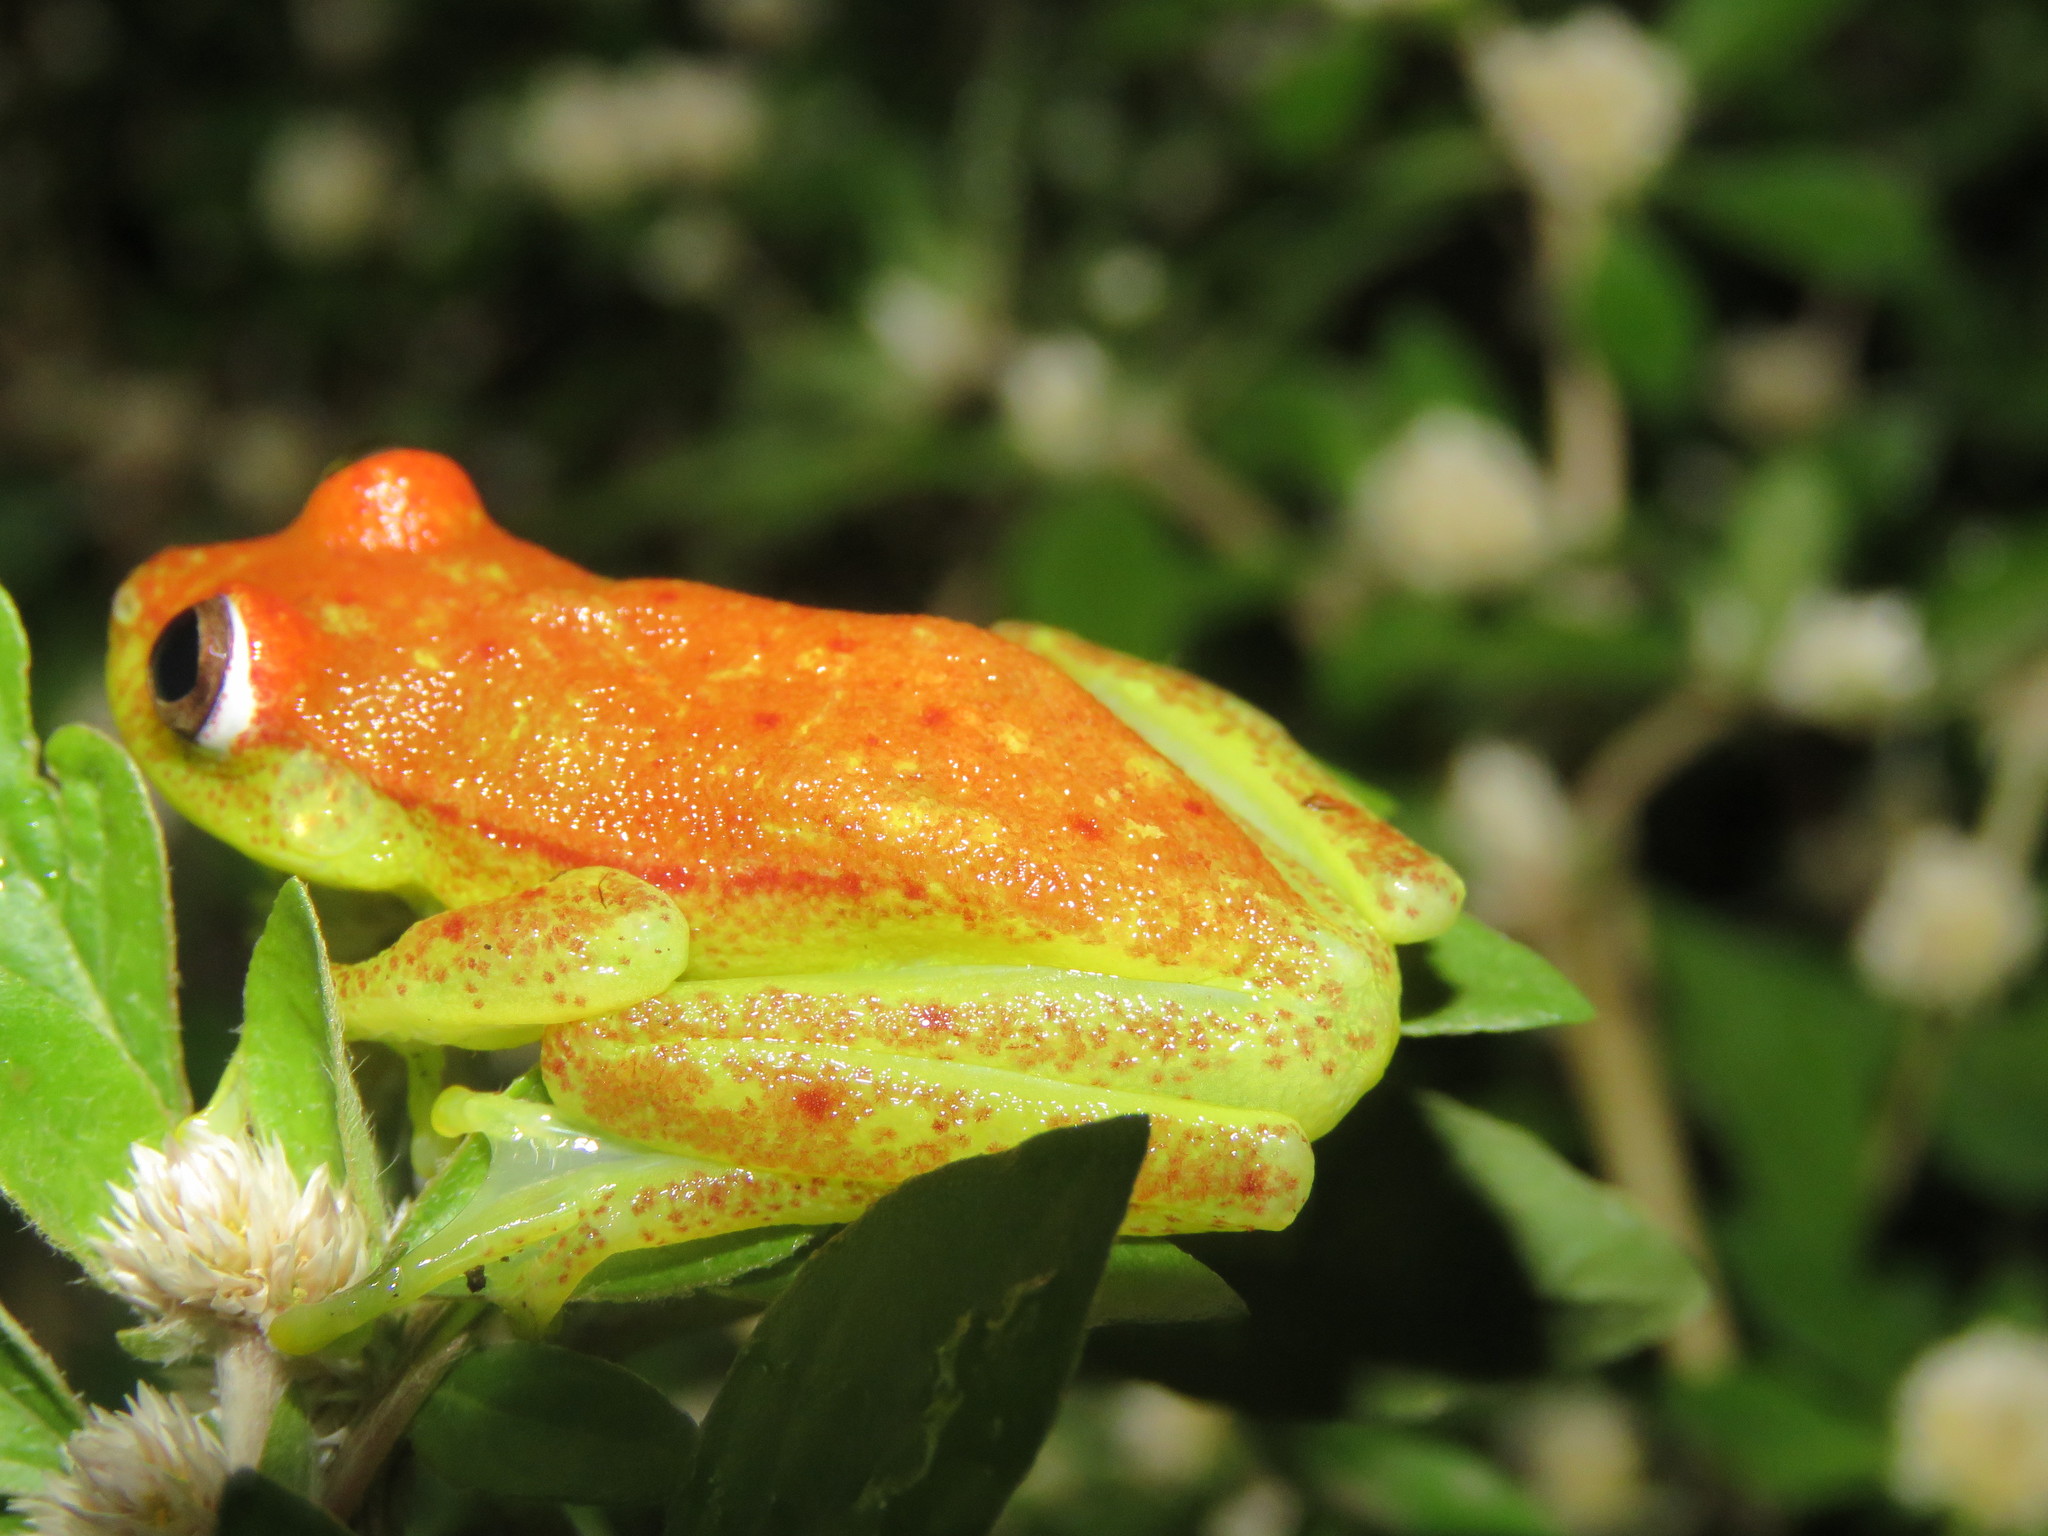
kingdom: Animalia
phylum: Chordata
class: Amphibia
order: Anura
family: Hylidae
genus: Boana
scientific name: Boana punctata
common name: Polka-dot treefrog
